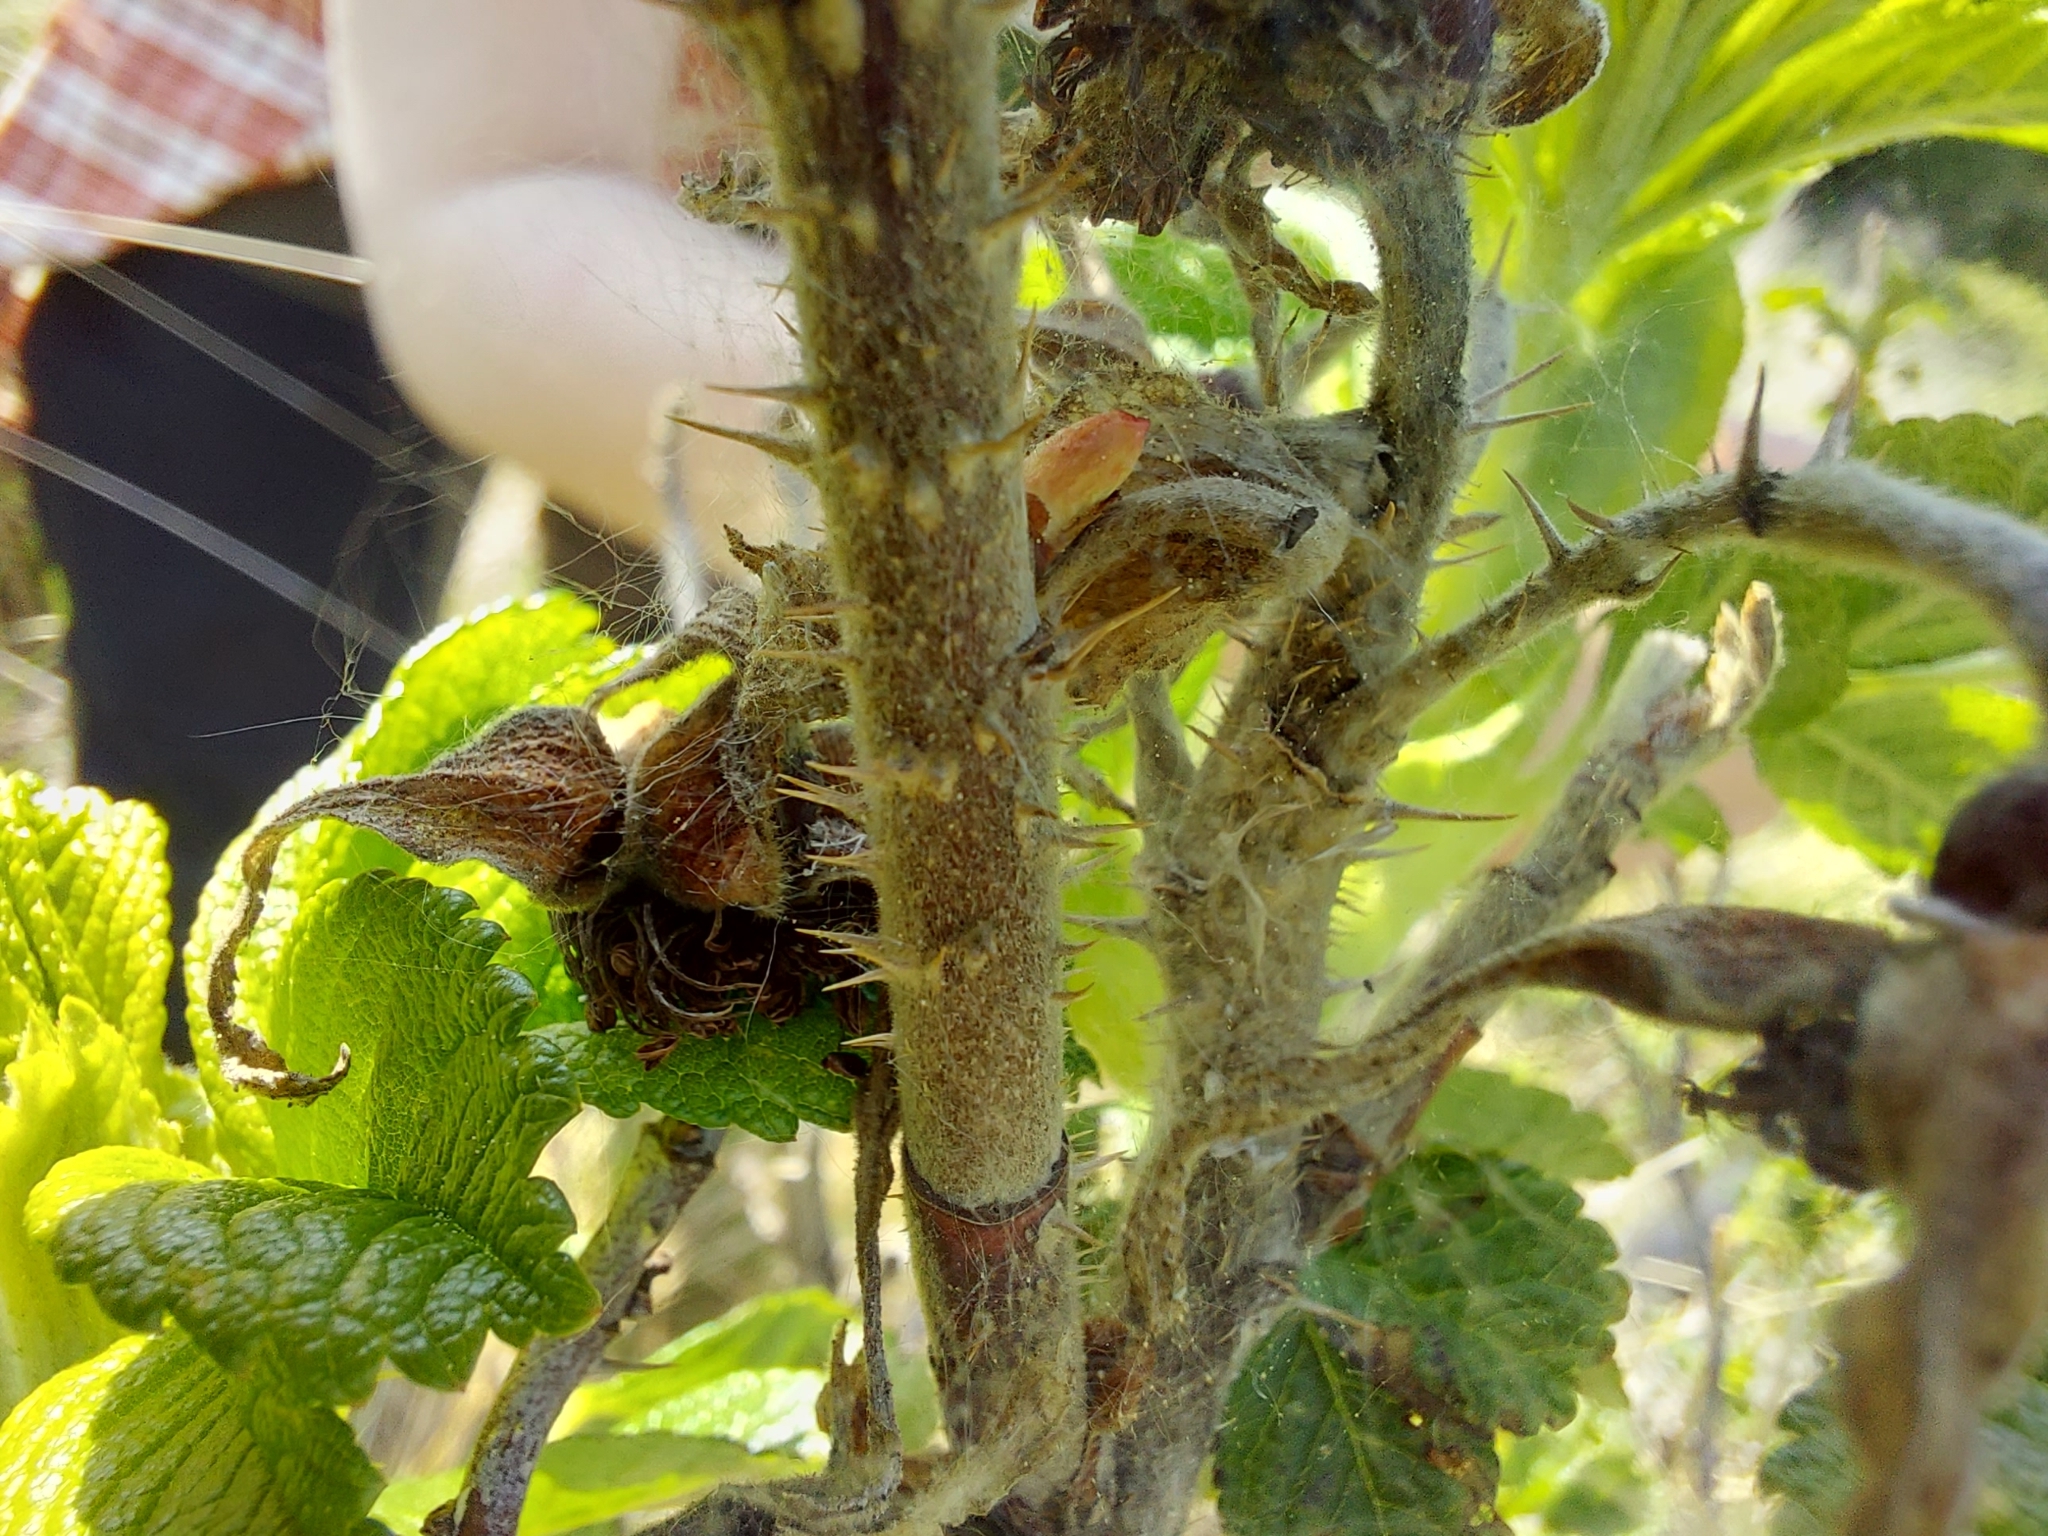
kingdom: Plantae
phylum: Tracheophyta
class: Magnoliopsida
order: Rosales
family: Rosaceae
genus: Rosa
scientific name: Rosa rugosa
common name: Japanese rose
